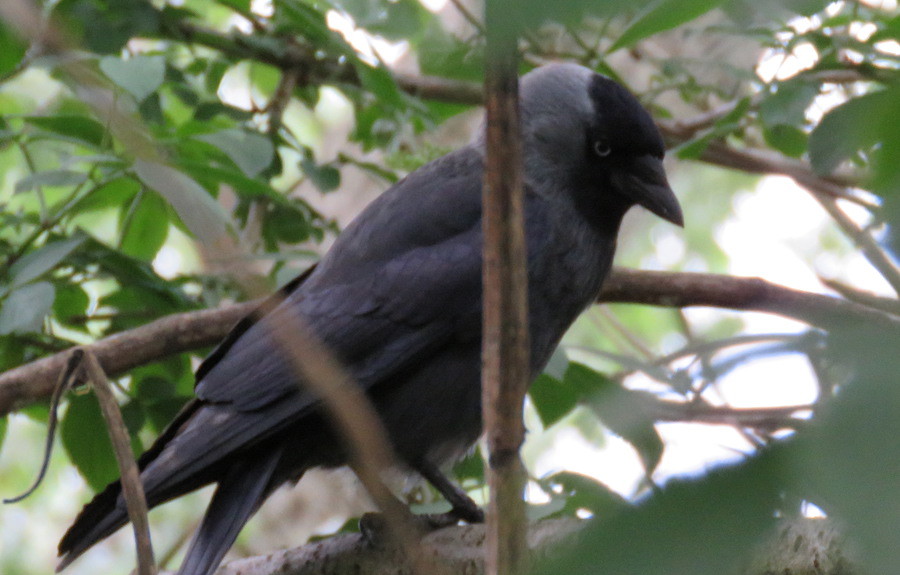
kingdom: Animalia
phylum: Chordata
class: Aves
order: Passeriformes
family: Corvidae
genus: Coloeus
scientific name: Coloeus monedula
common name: Western jackdaw
